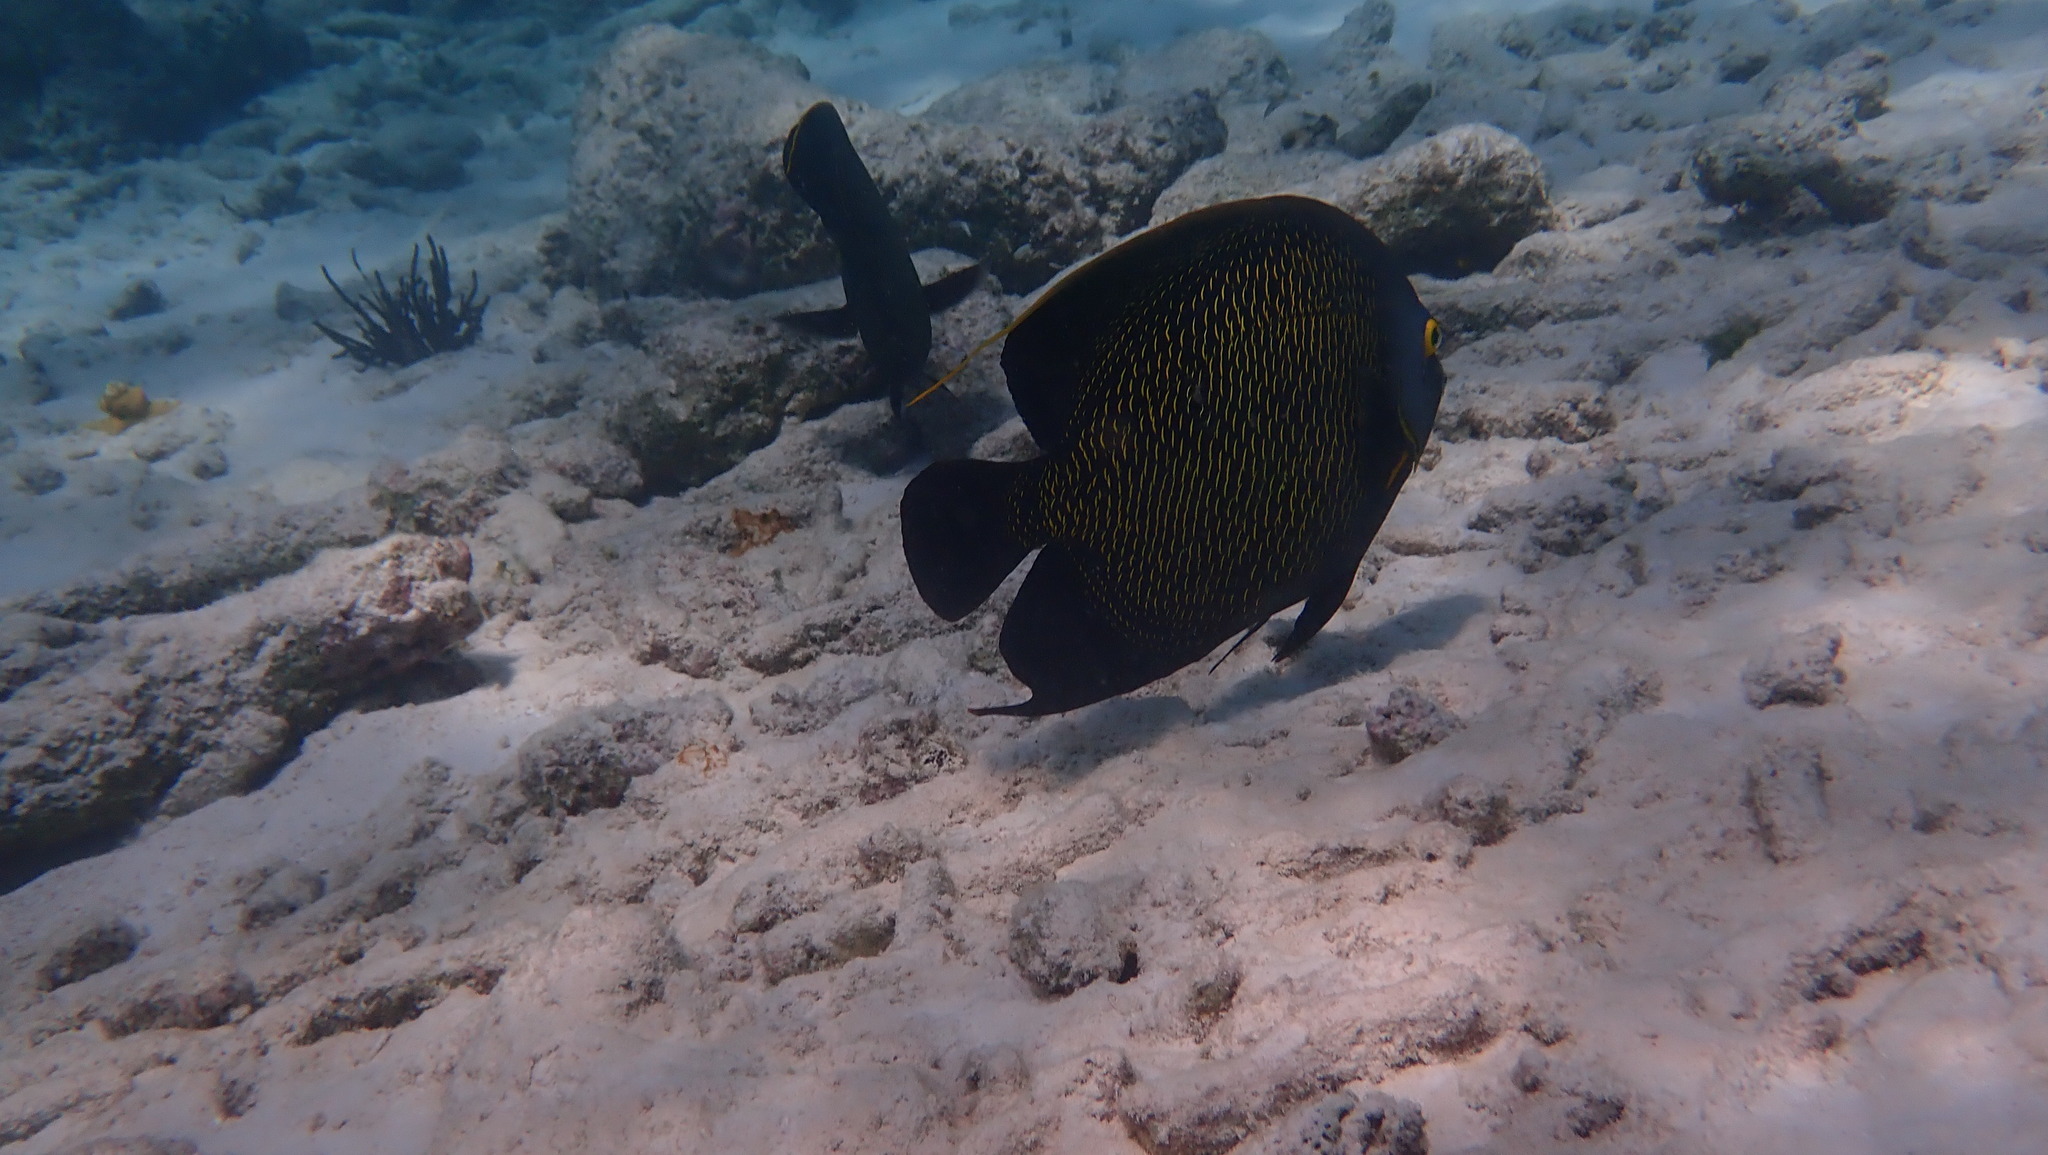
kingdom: Animalia
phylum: Chordata
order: Perciformes
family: Pomacanthidae
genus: Pomacanthus
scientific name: Pomacanthus paru
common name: French angelfish
